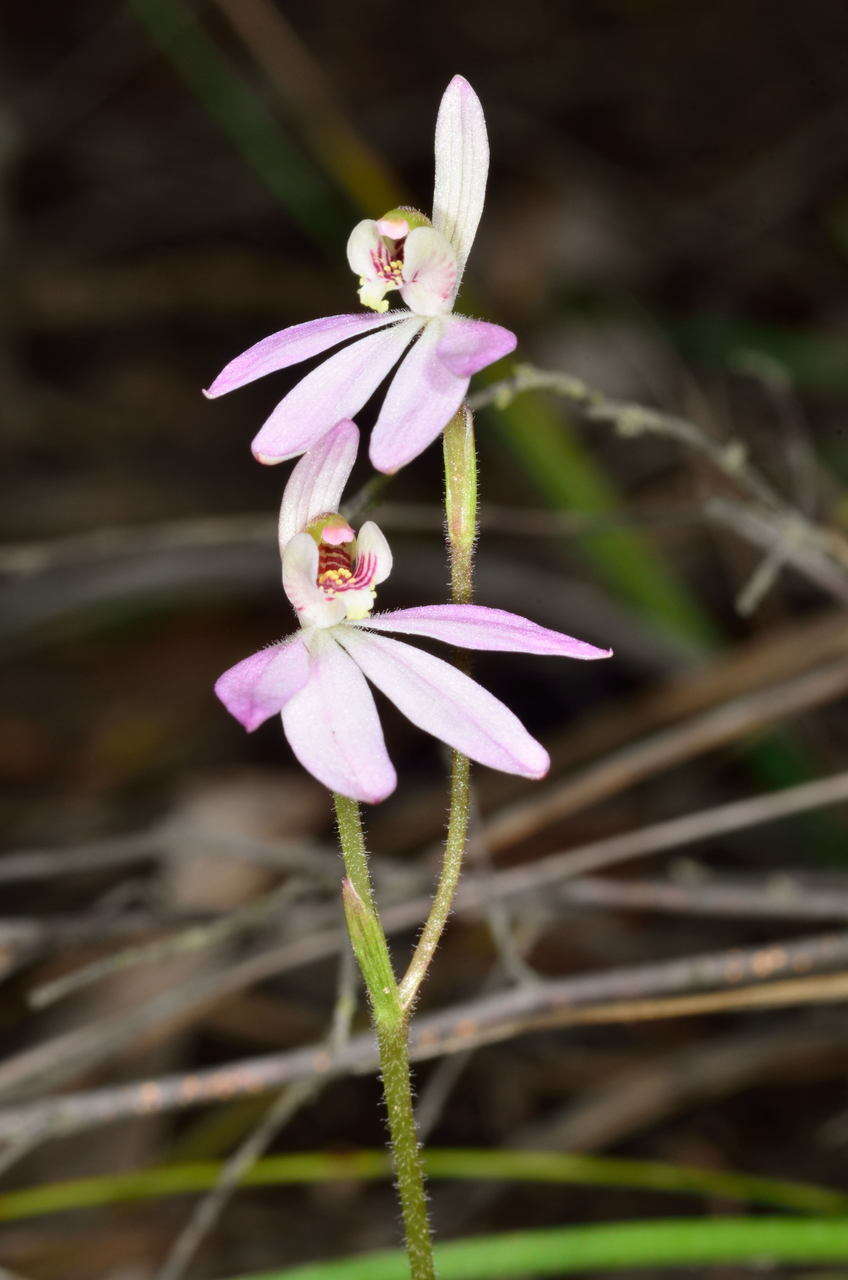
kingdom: Plantae
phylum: Tracheophyta
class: Liliopsida
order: Asparagales
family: Orchidaceae
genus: Caladenia
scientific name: Caladenia carnea
